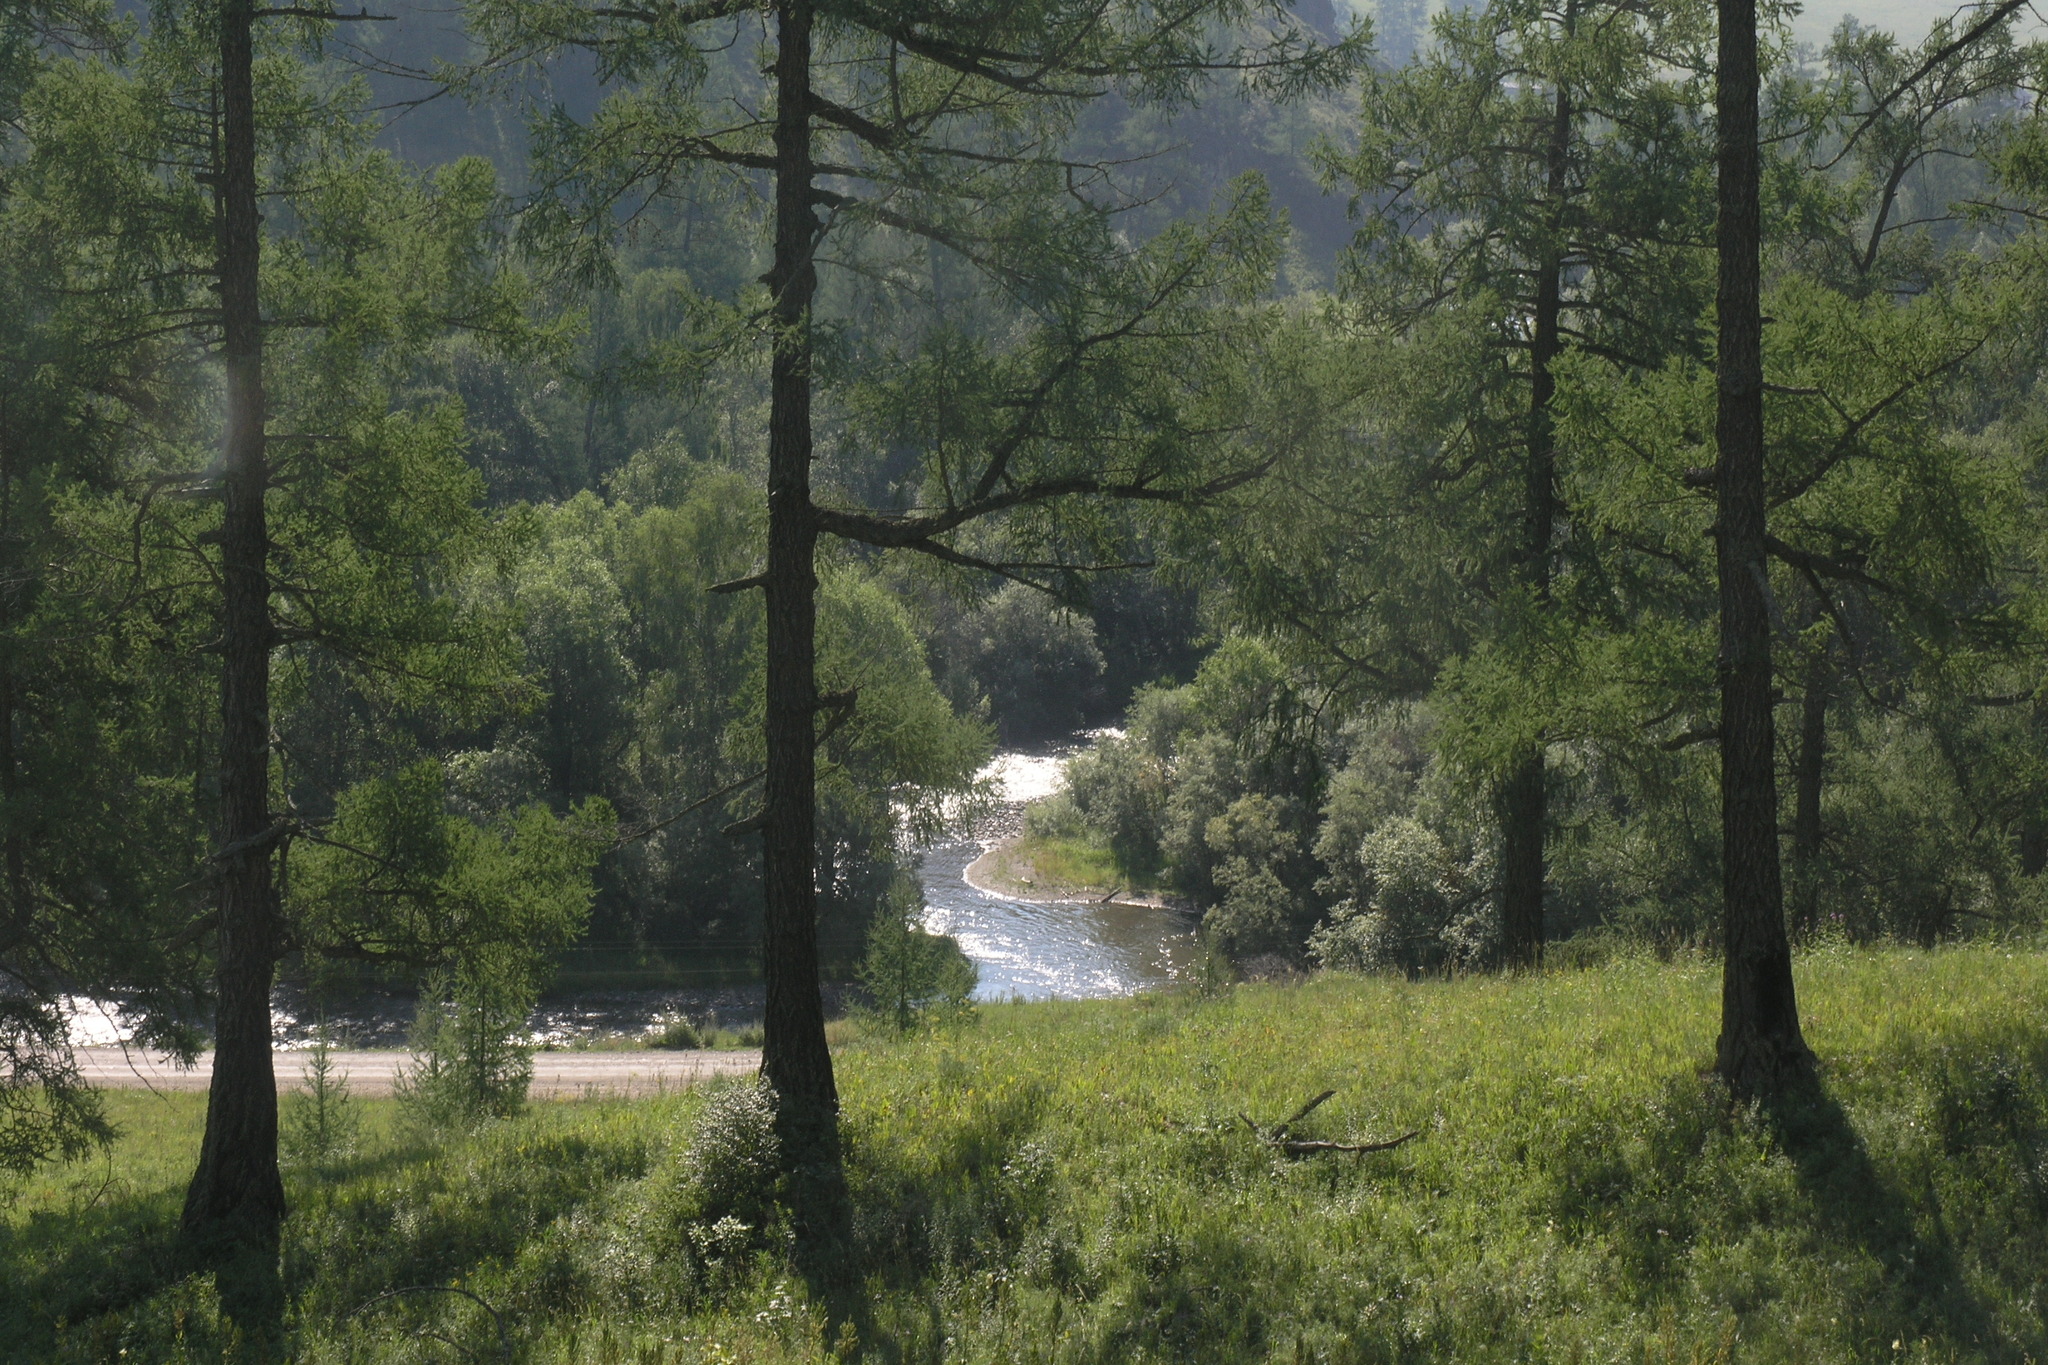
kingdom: Plantae
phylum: Tracheophyta
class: Pinopsida
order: Pinales
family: Pinaceae
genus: Larix
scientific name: Larix sibirica
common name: Siberian larch
